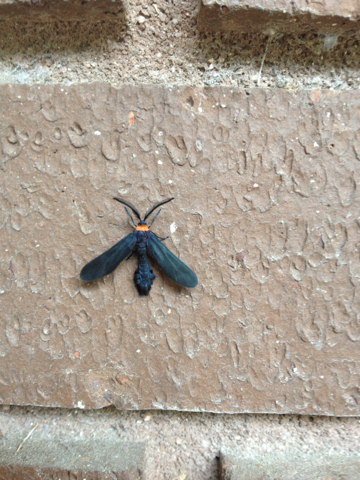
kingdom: Animalia
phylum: Arthropoda
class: Insecta
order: Lepidoptera
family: Zygaenidae
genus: Harrisina
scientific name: Harrisina americana
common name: Grapeleaf skeletonizer moth
